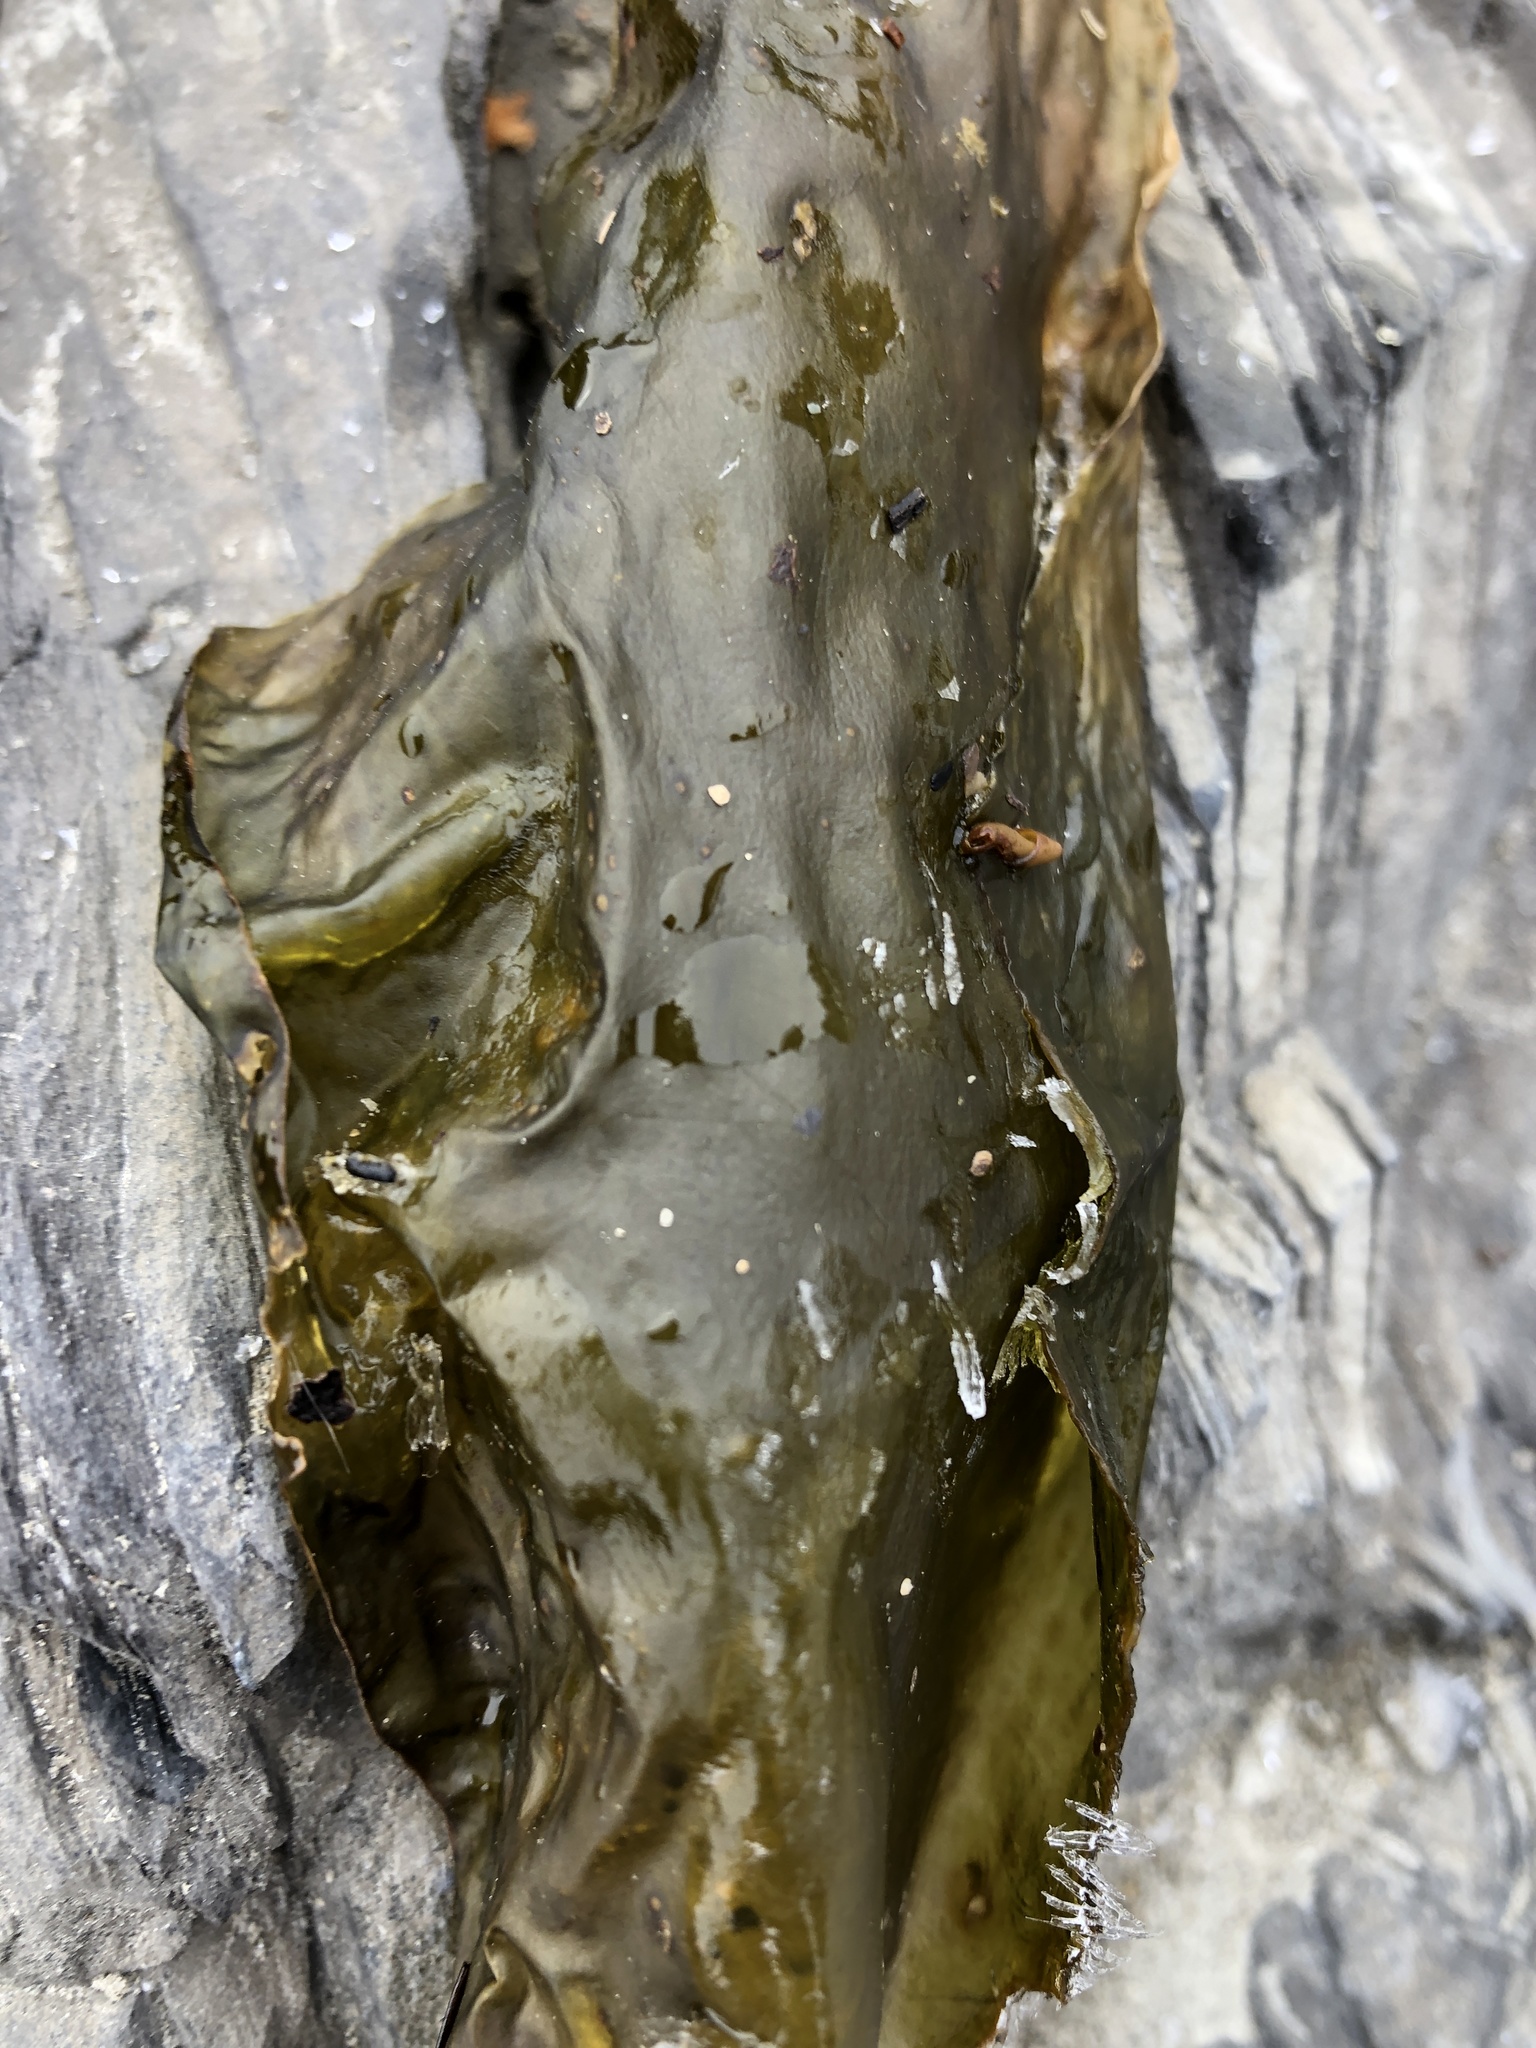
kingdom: Chromista
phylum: Ochrophyta
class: Phaeophyceae
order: Laminariales
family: Laminariaceae
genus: Saccharina
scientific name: Saccharina latissima
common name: Poor man's weather glass
